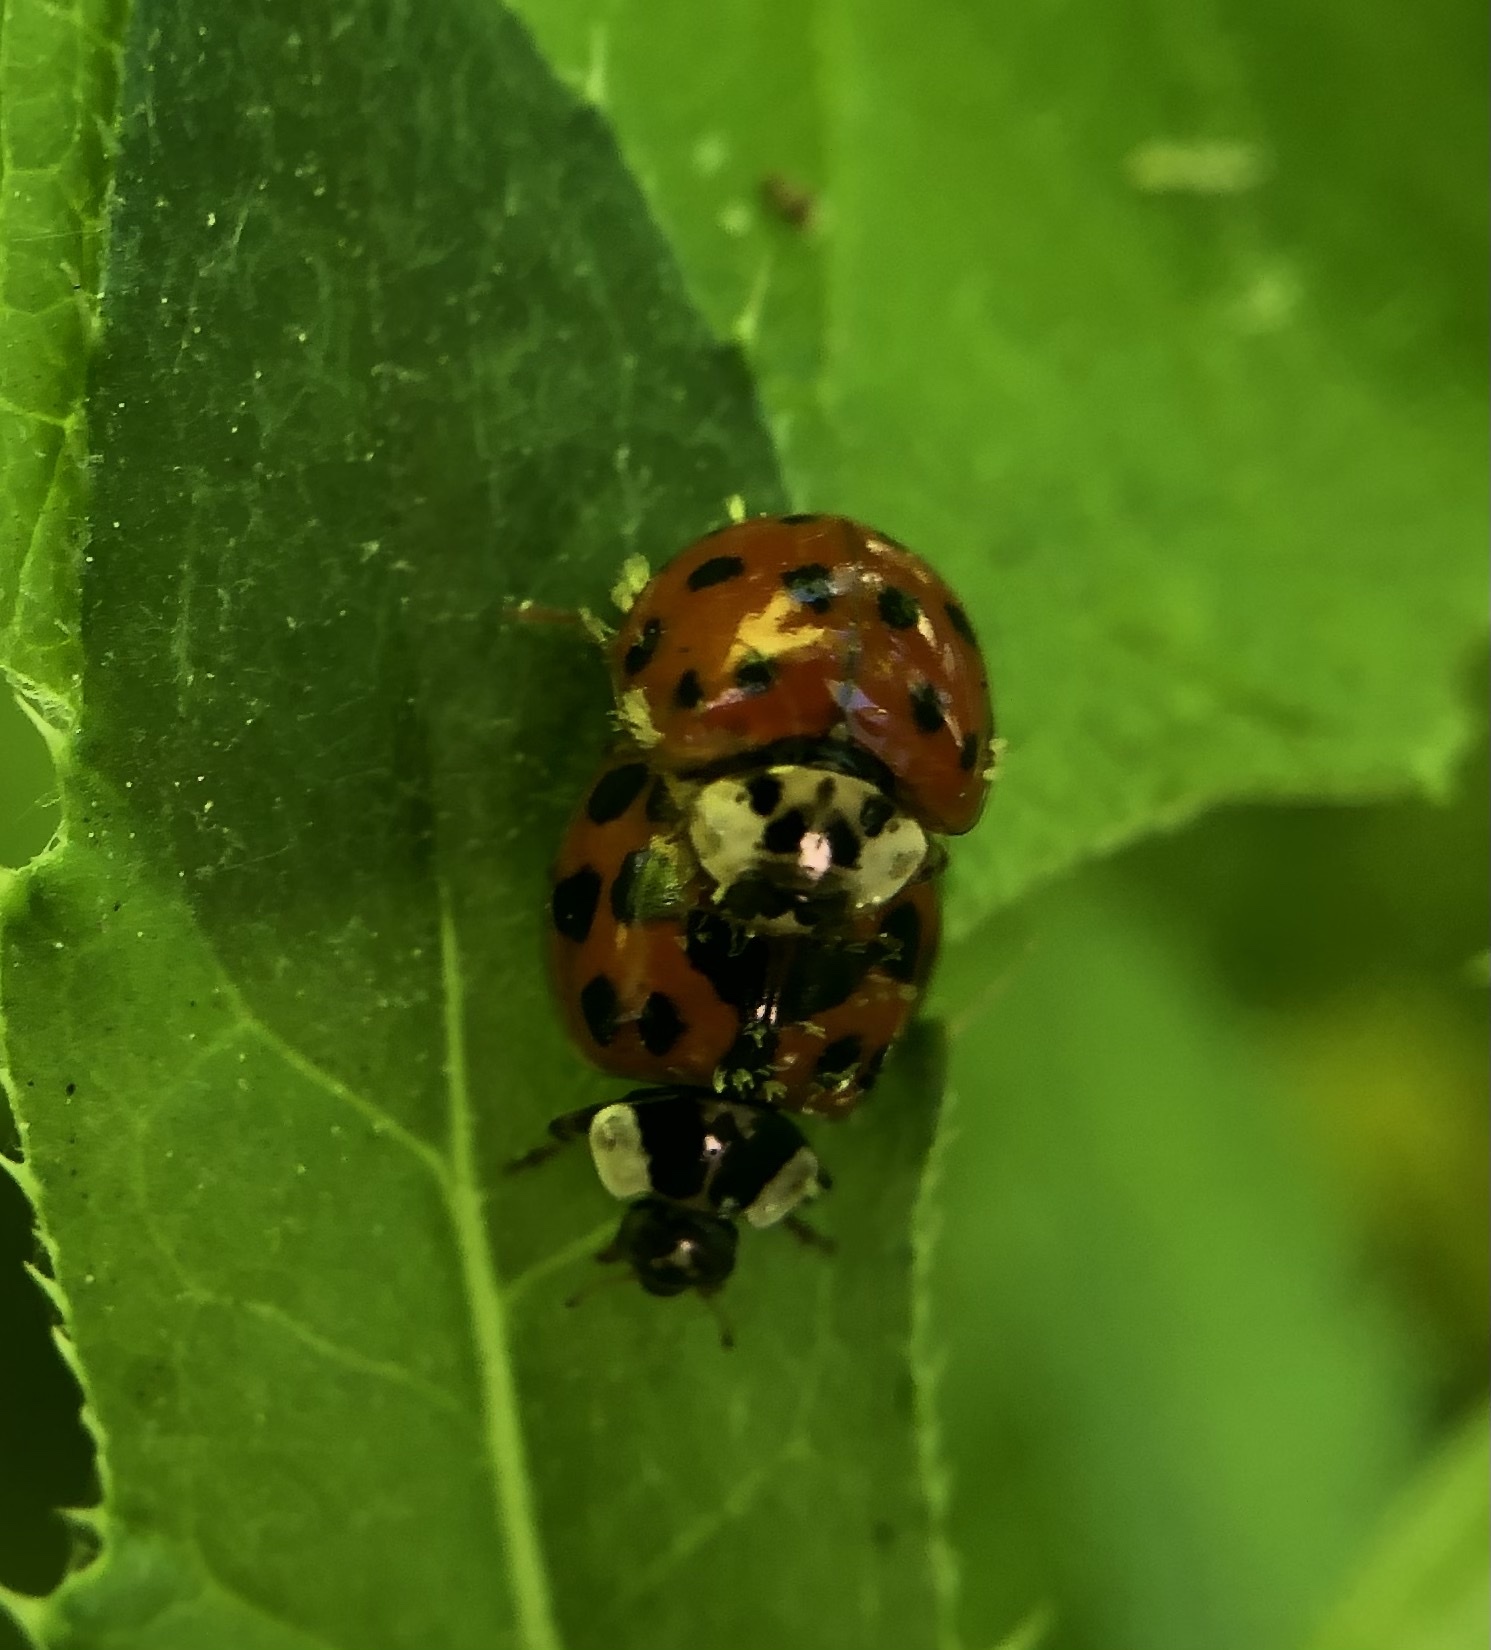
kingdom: Animalia
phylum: Arthropoda
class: Insecta
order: Coleoptera
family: Coccinellidae
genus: Harmonia
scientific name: Harmonia axyridis
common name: Harlequin ladybird
